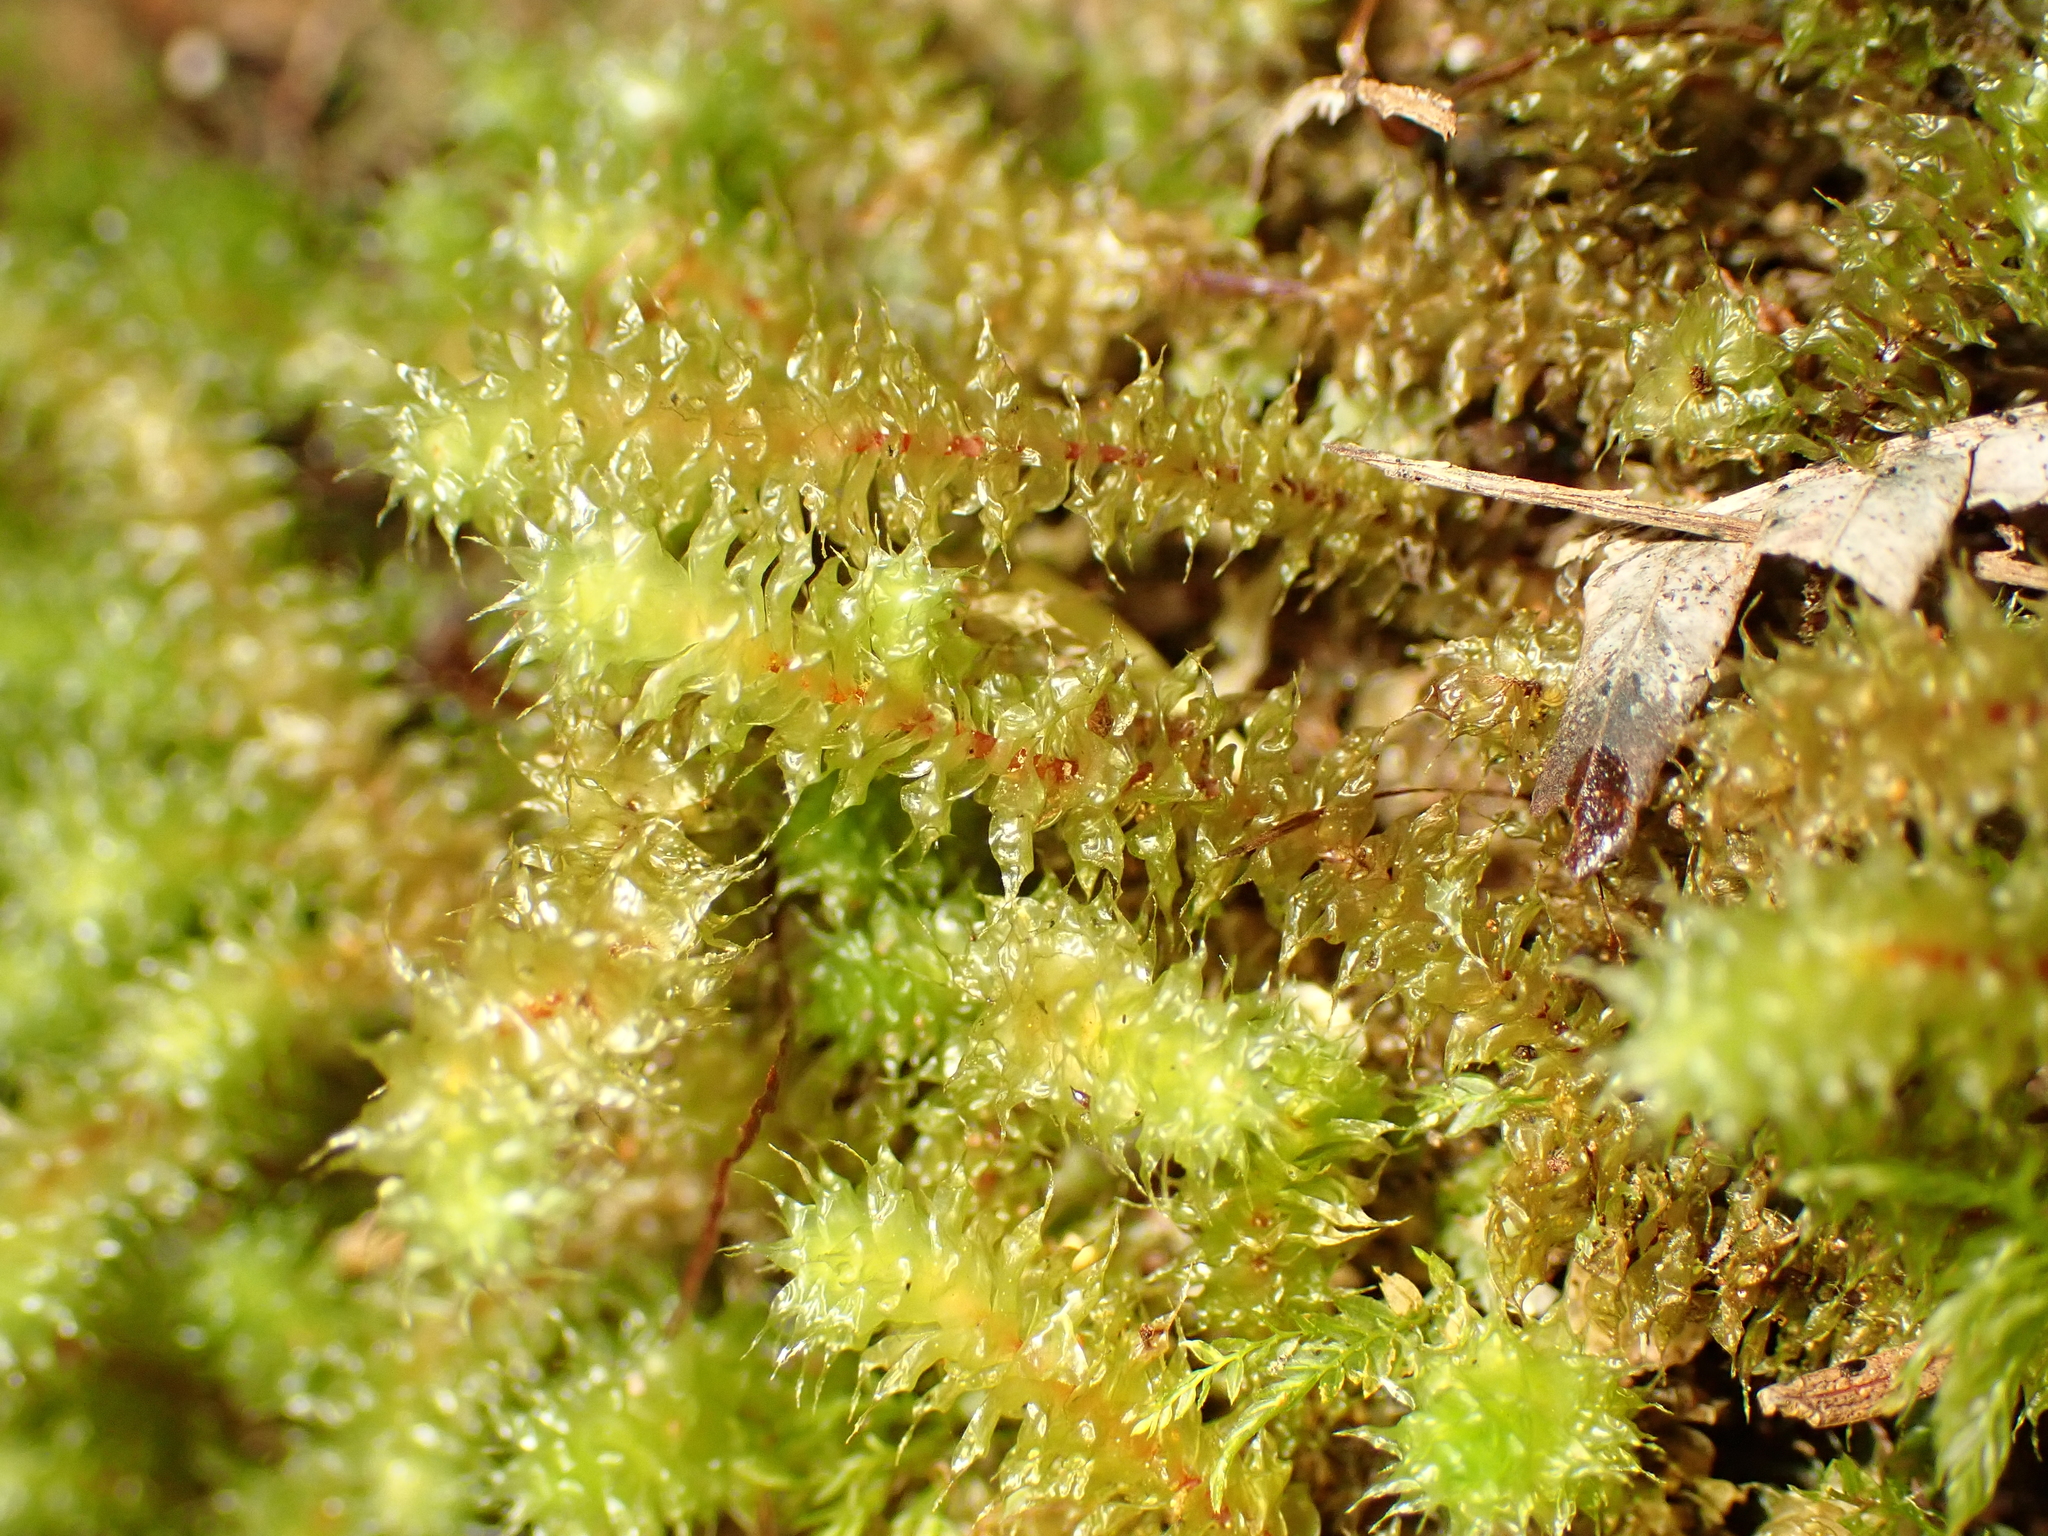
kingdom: Plantae
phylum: Bryophyta
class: Bryopsida
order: Ptychomniales
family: Ptychomniaceae
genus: Ptychomnion
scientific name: Ptychomnion aciculare
